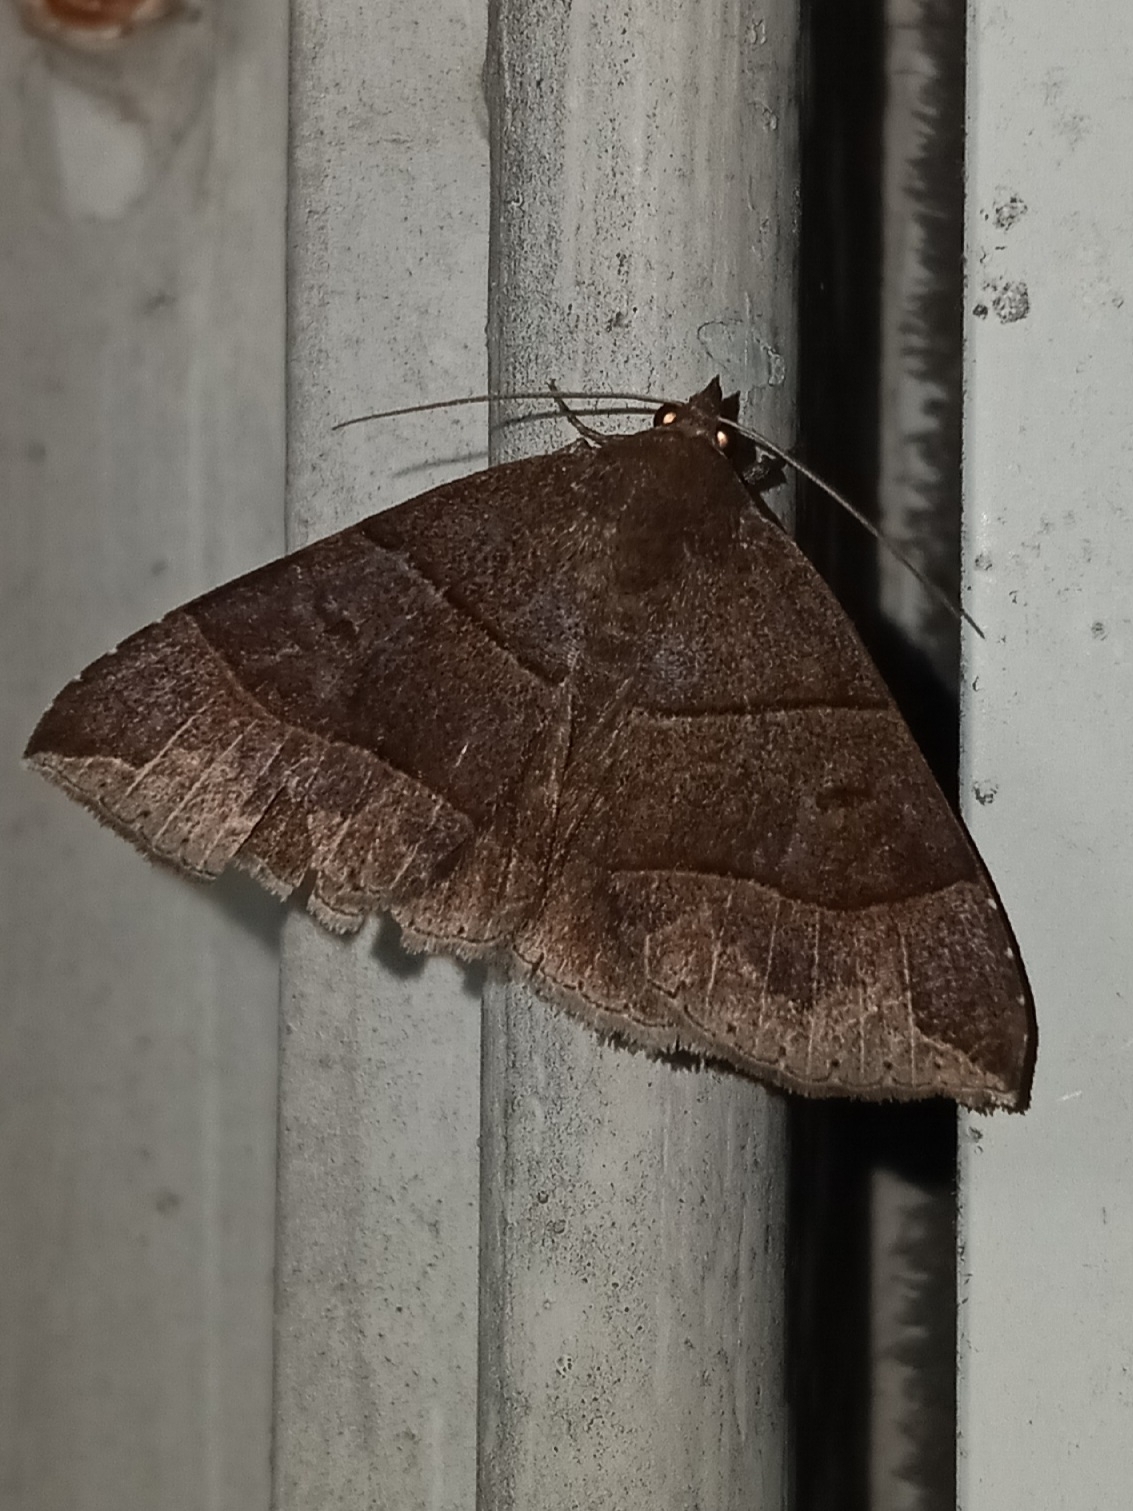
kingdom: Animalia
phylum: Arthropoda
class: Insecta
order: Lepidoptera
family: Erebidae
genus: Parallelia
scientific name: Parallelia bistriaris
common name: Maple looper moth
